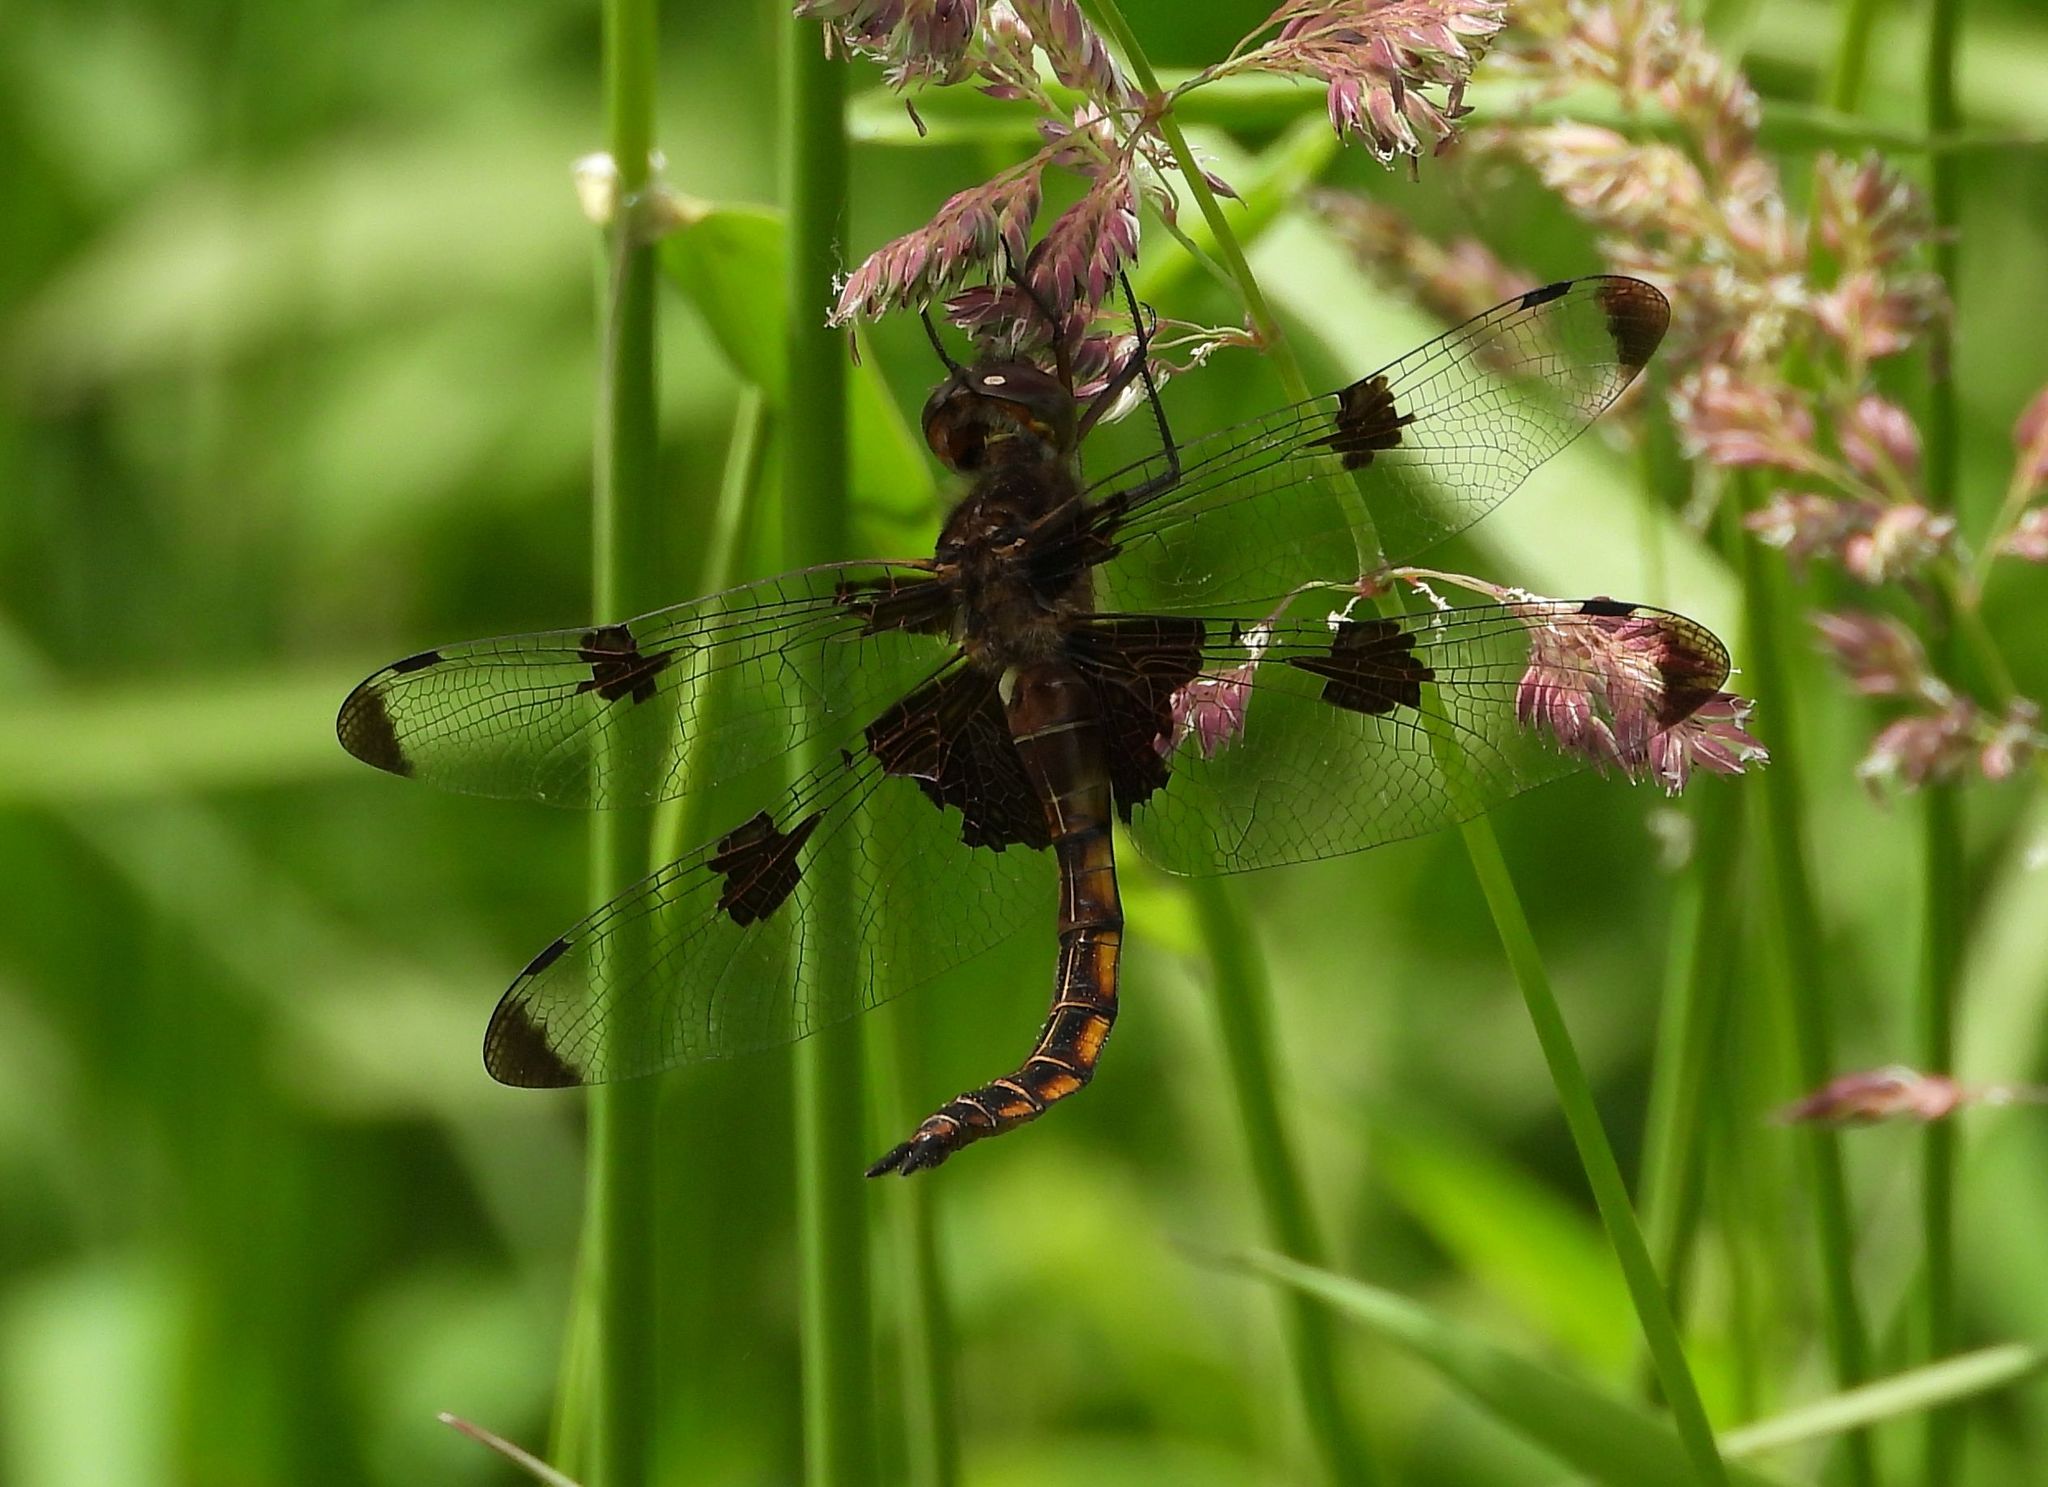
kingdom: Animalia
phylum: Arthropoda
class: Insecta
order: Odonata
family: Corduliidae
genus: Epitheca
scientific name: Epitheca princeps
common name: Prince baskettail
